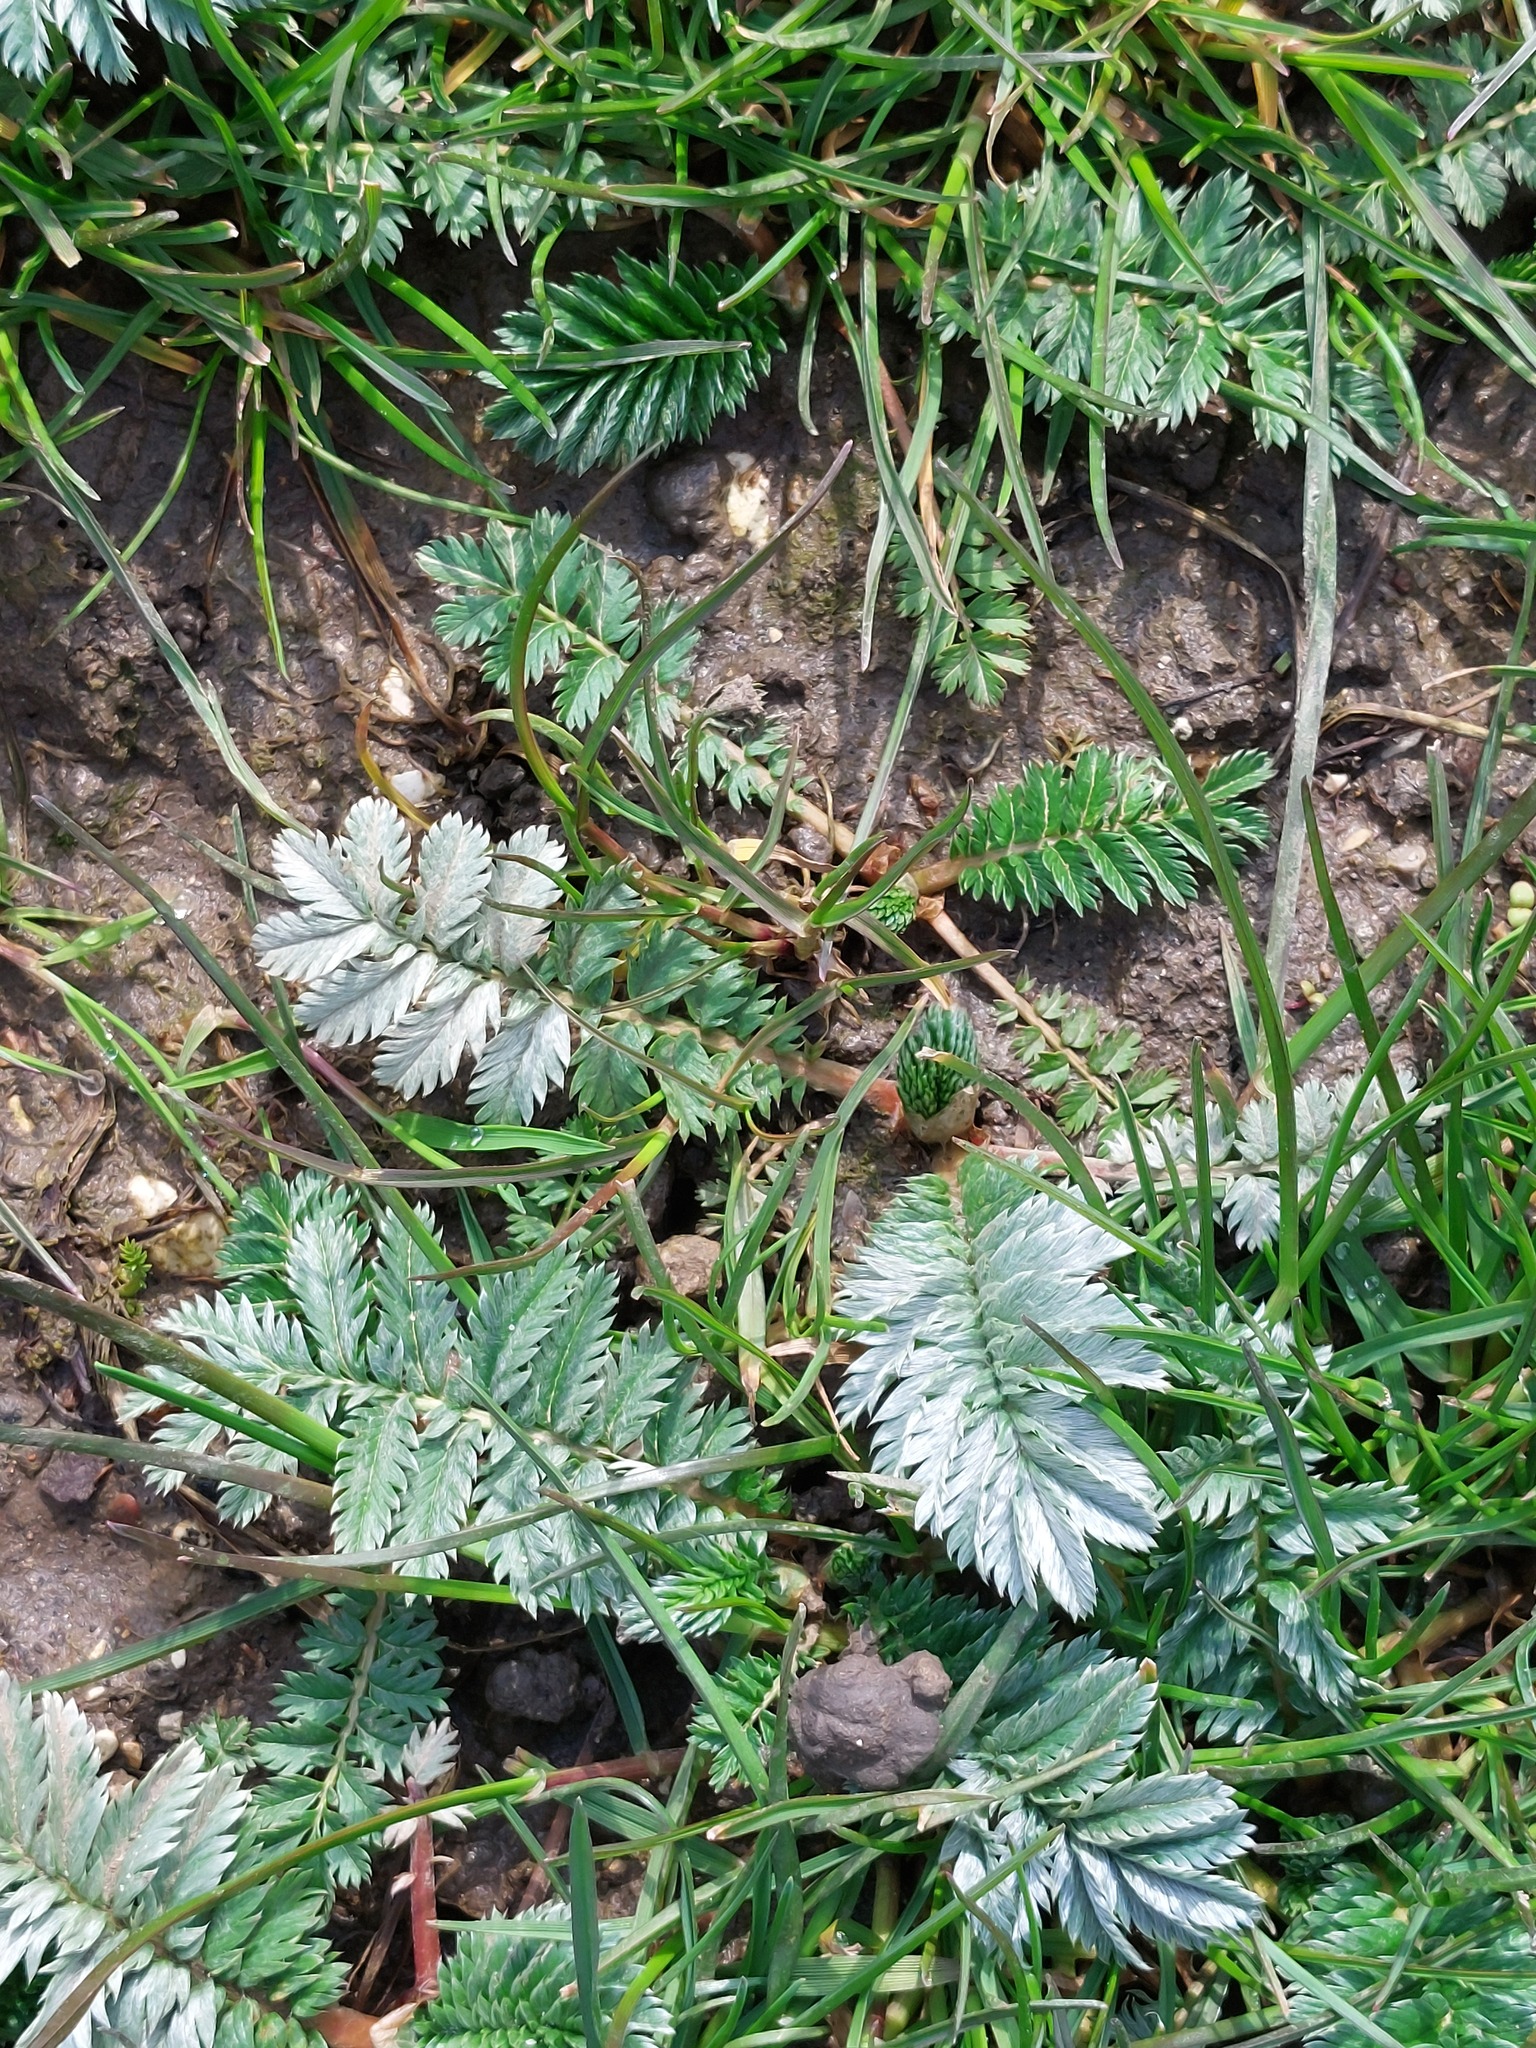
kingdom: Plantae
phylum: Tracheophyta
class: Magnoliopsida
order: Rosales
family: Rosaceae
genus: Argentina
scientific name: Argentina anserina
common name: Common silverweed
